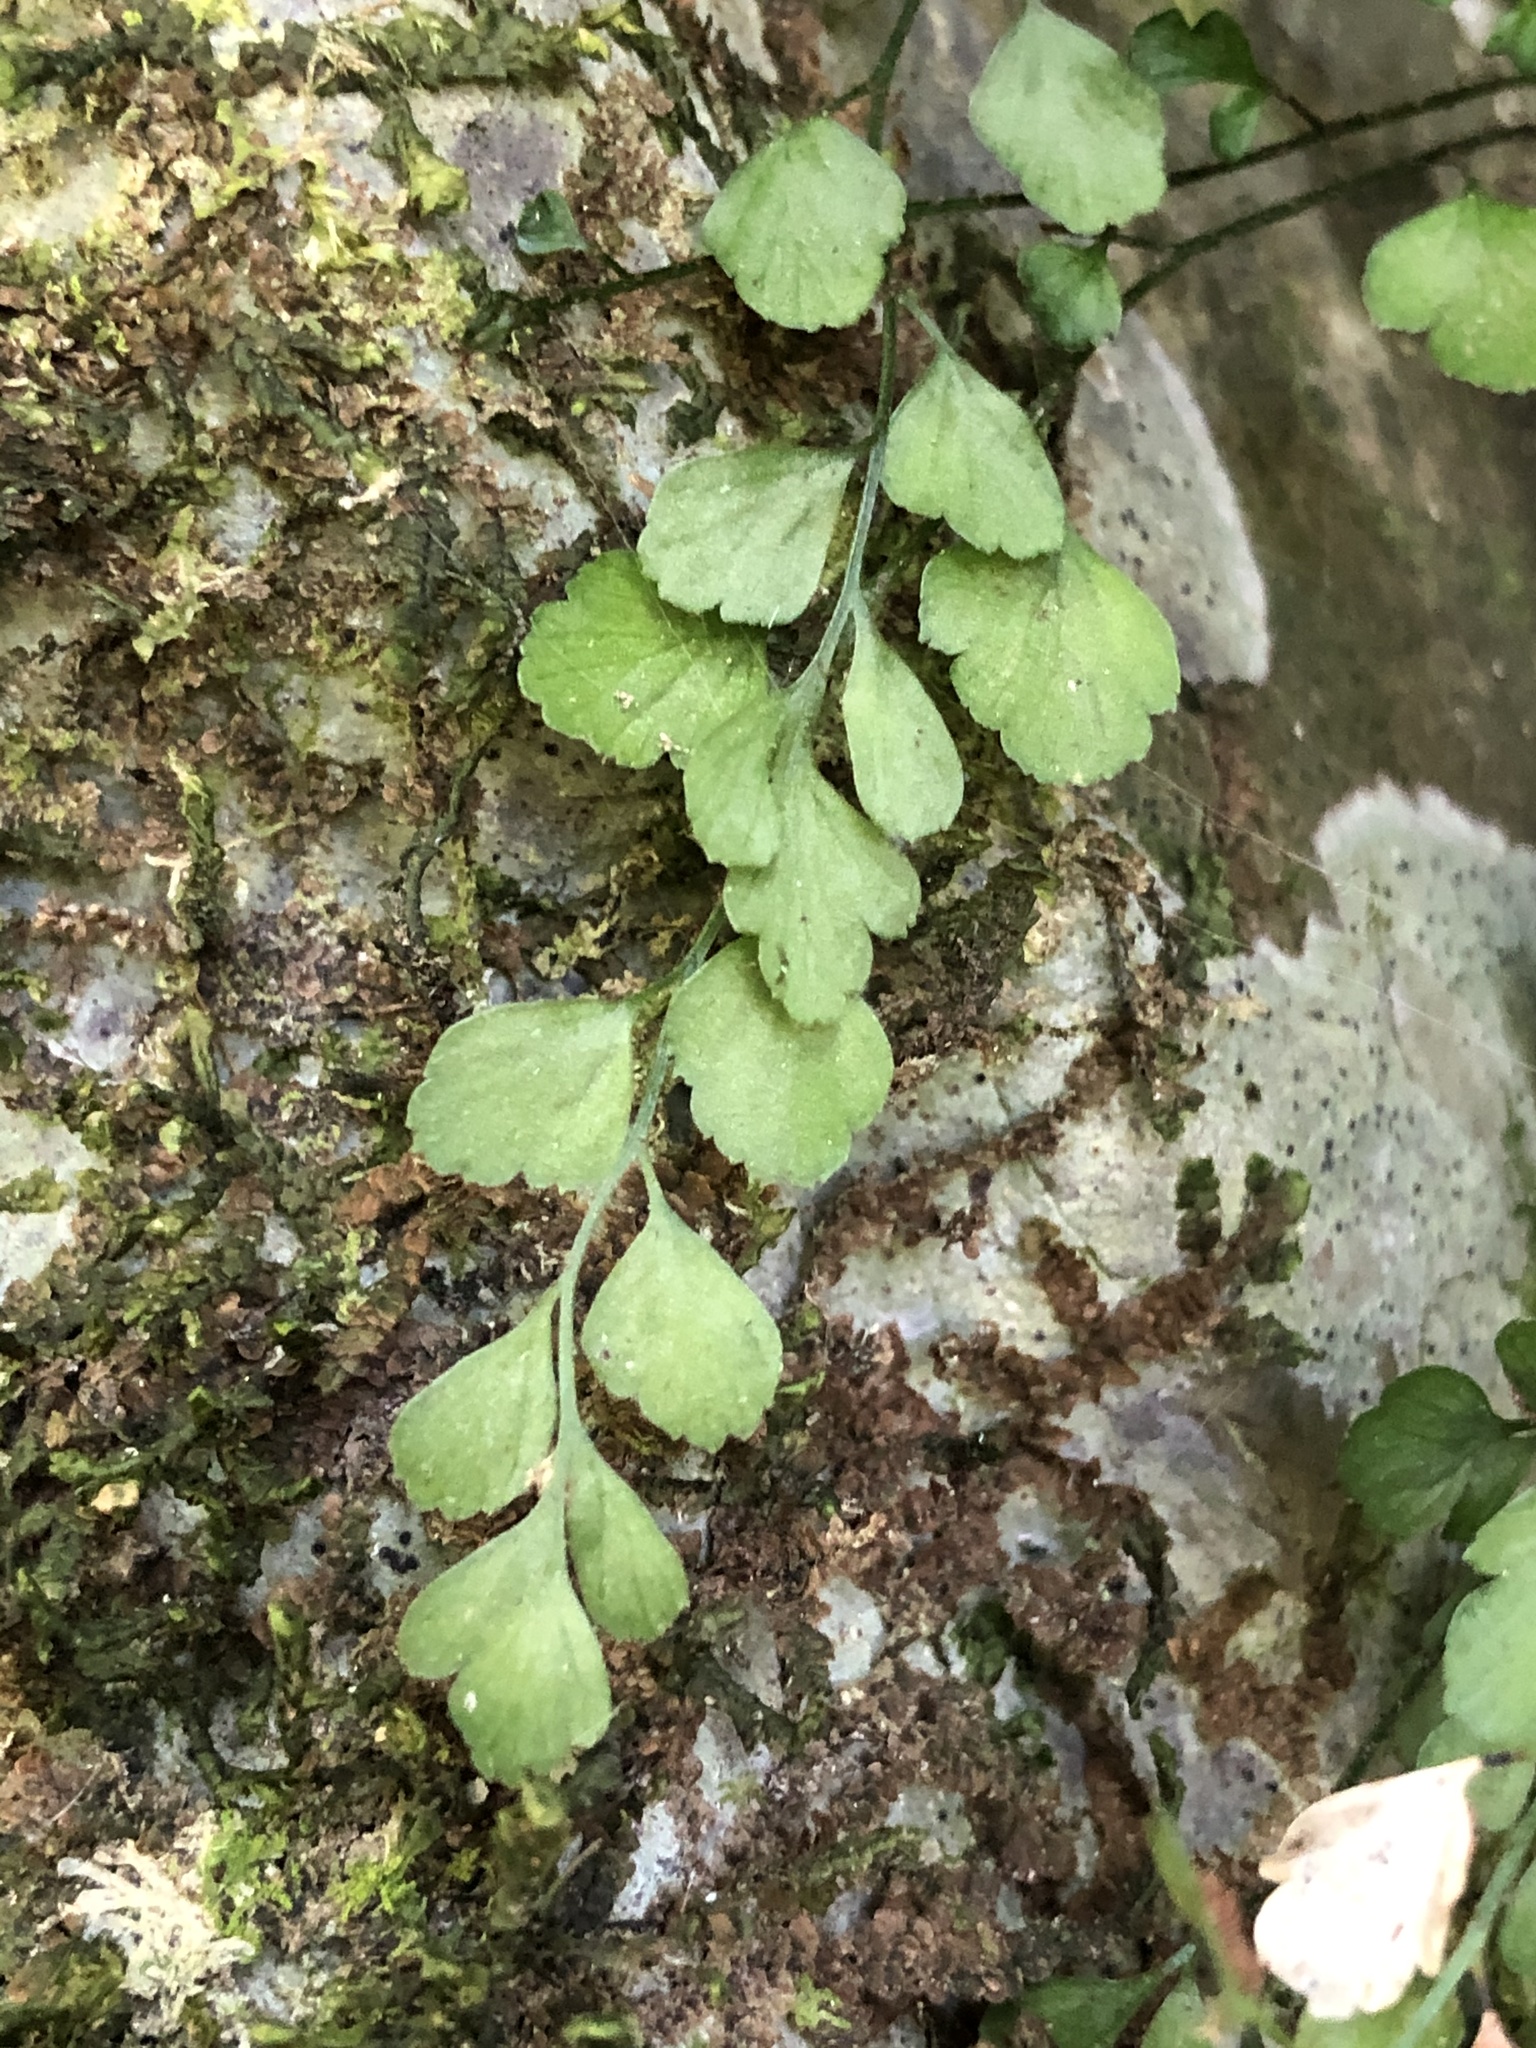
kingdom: Plantae
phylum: Tracheophyta
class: Polypodiopsida
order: Polypodiales
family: Aspleniaceae
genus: Asplenium
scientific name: Asplenium hookerianum
